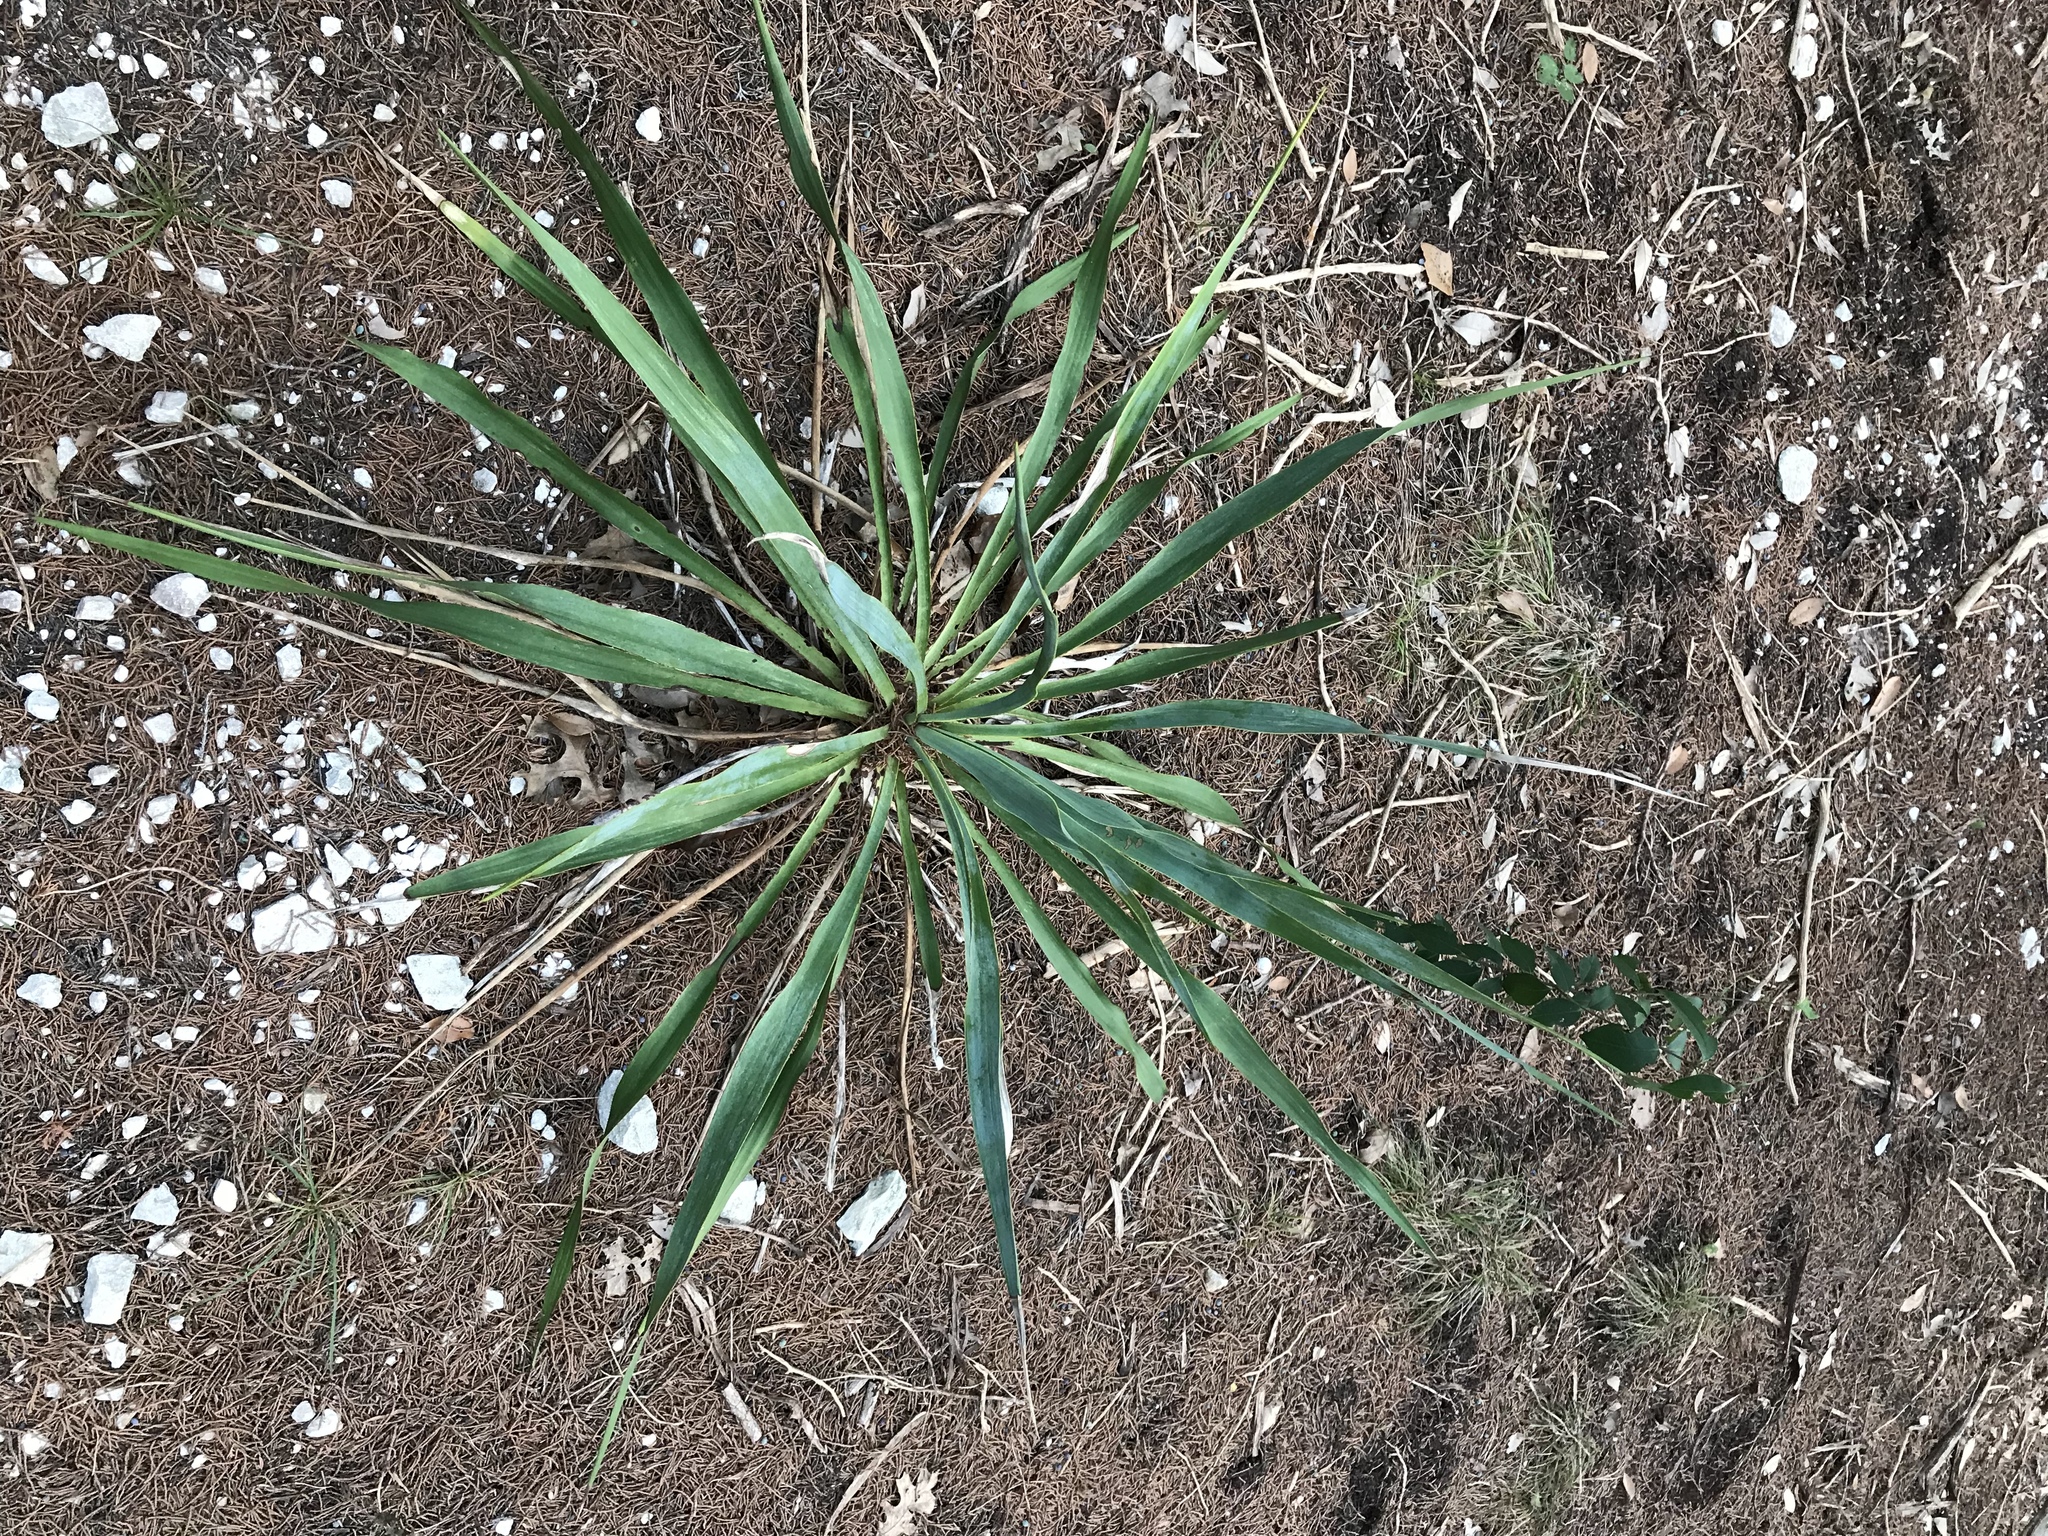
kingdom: Plantae
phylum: Tracheophyta
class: Liliopsida
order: Asparagales
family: Asparagaceae
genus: Yucca
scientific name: Yucca rupicola
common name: Twisted-leaf spanish-dagger
